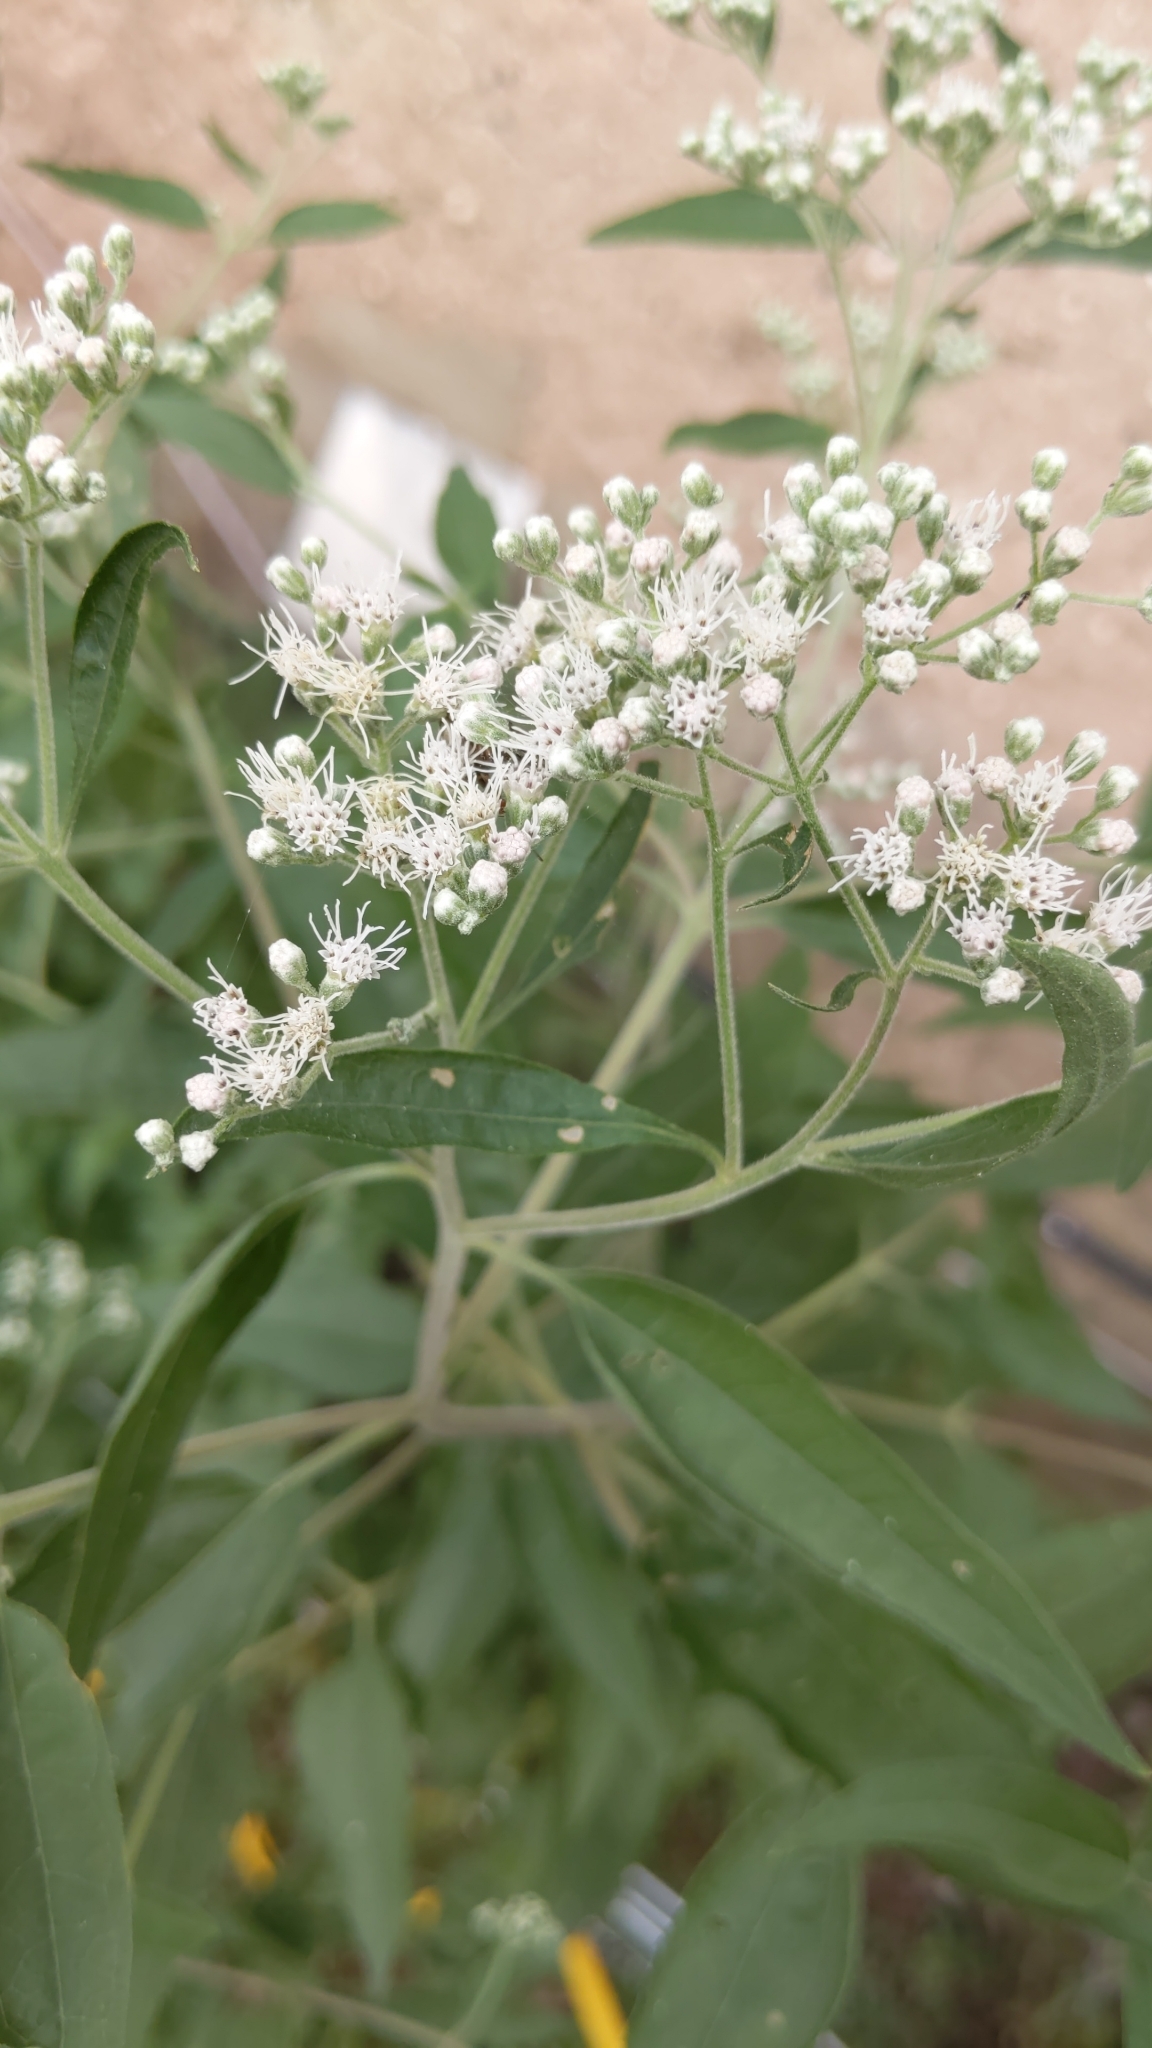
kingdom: Plantae
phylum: Tracheophyta
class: Magnoliopsida
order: Asterales
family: Asteraceae
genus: Eupatorium
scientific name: Eupatorium serotinum
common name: Late boneset
